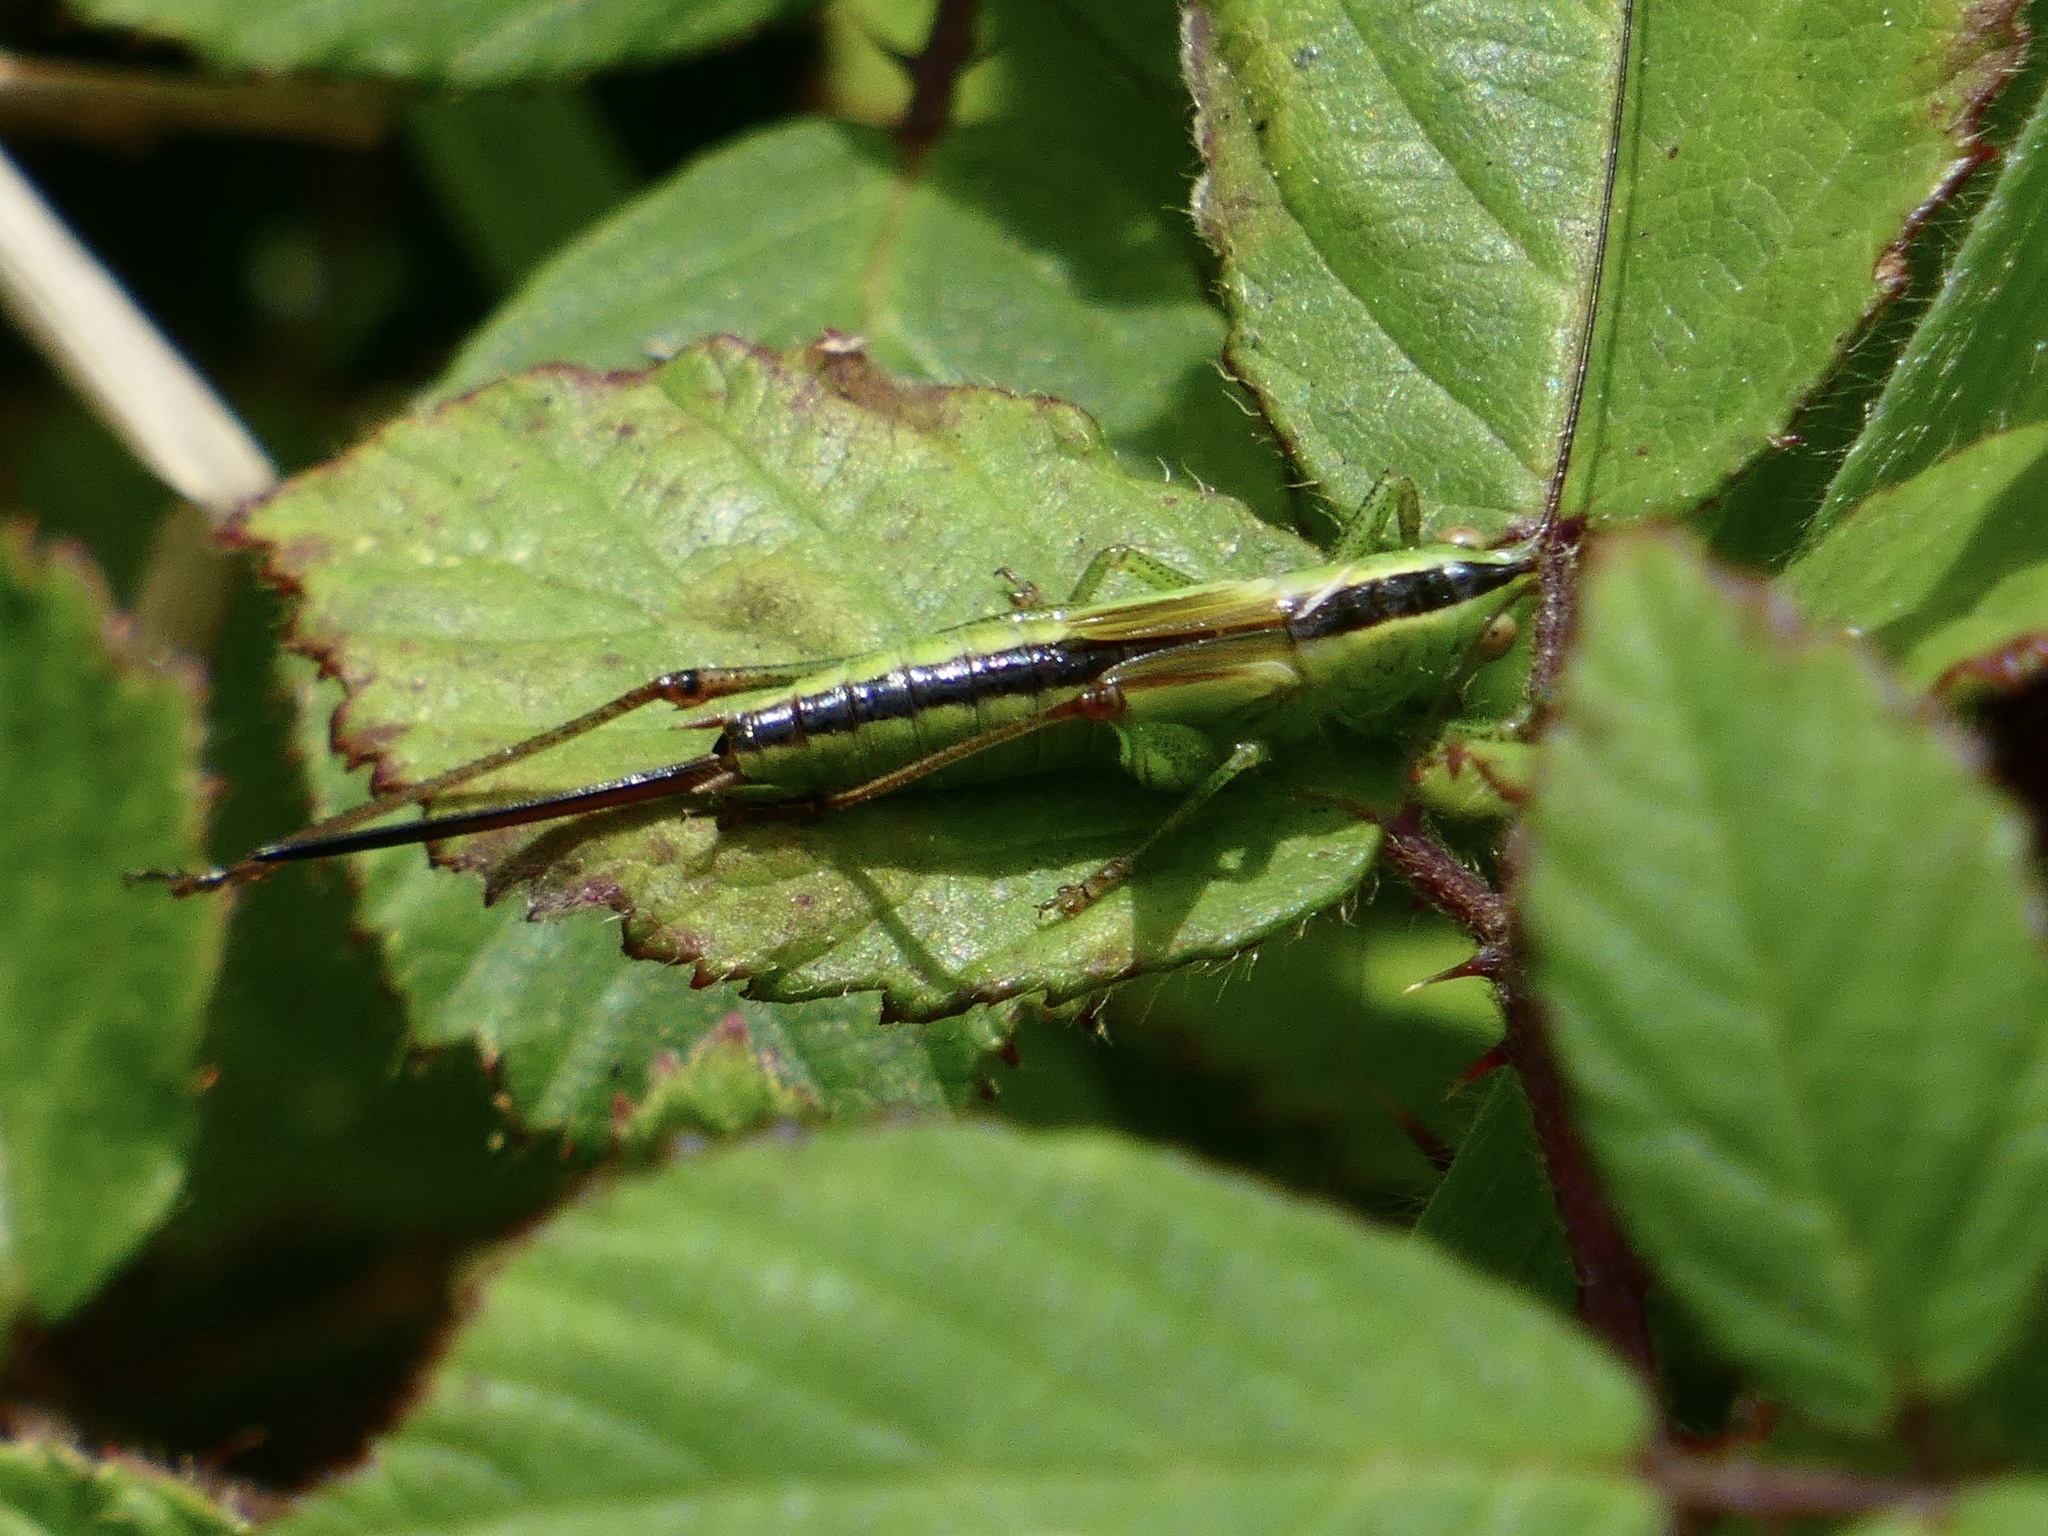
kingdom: Animalia
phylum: Arthropoda
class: Insecta
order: Orthoptera
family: Tettigoniidae
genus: Conocephalus
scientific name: Conocephalus fuscus
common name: Long-winged conehead
